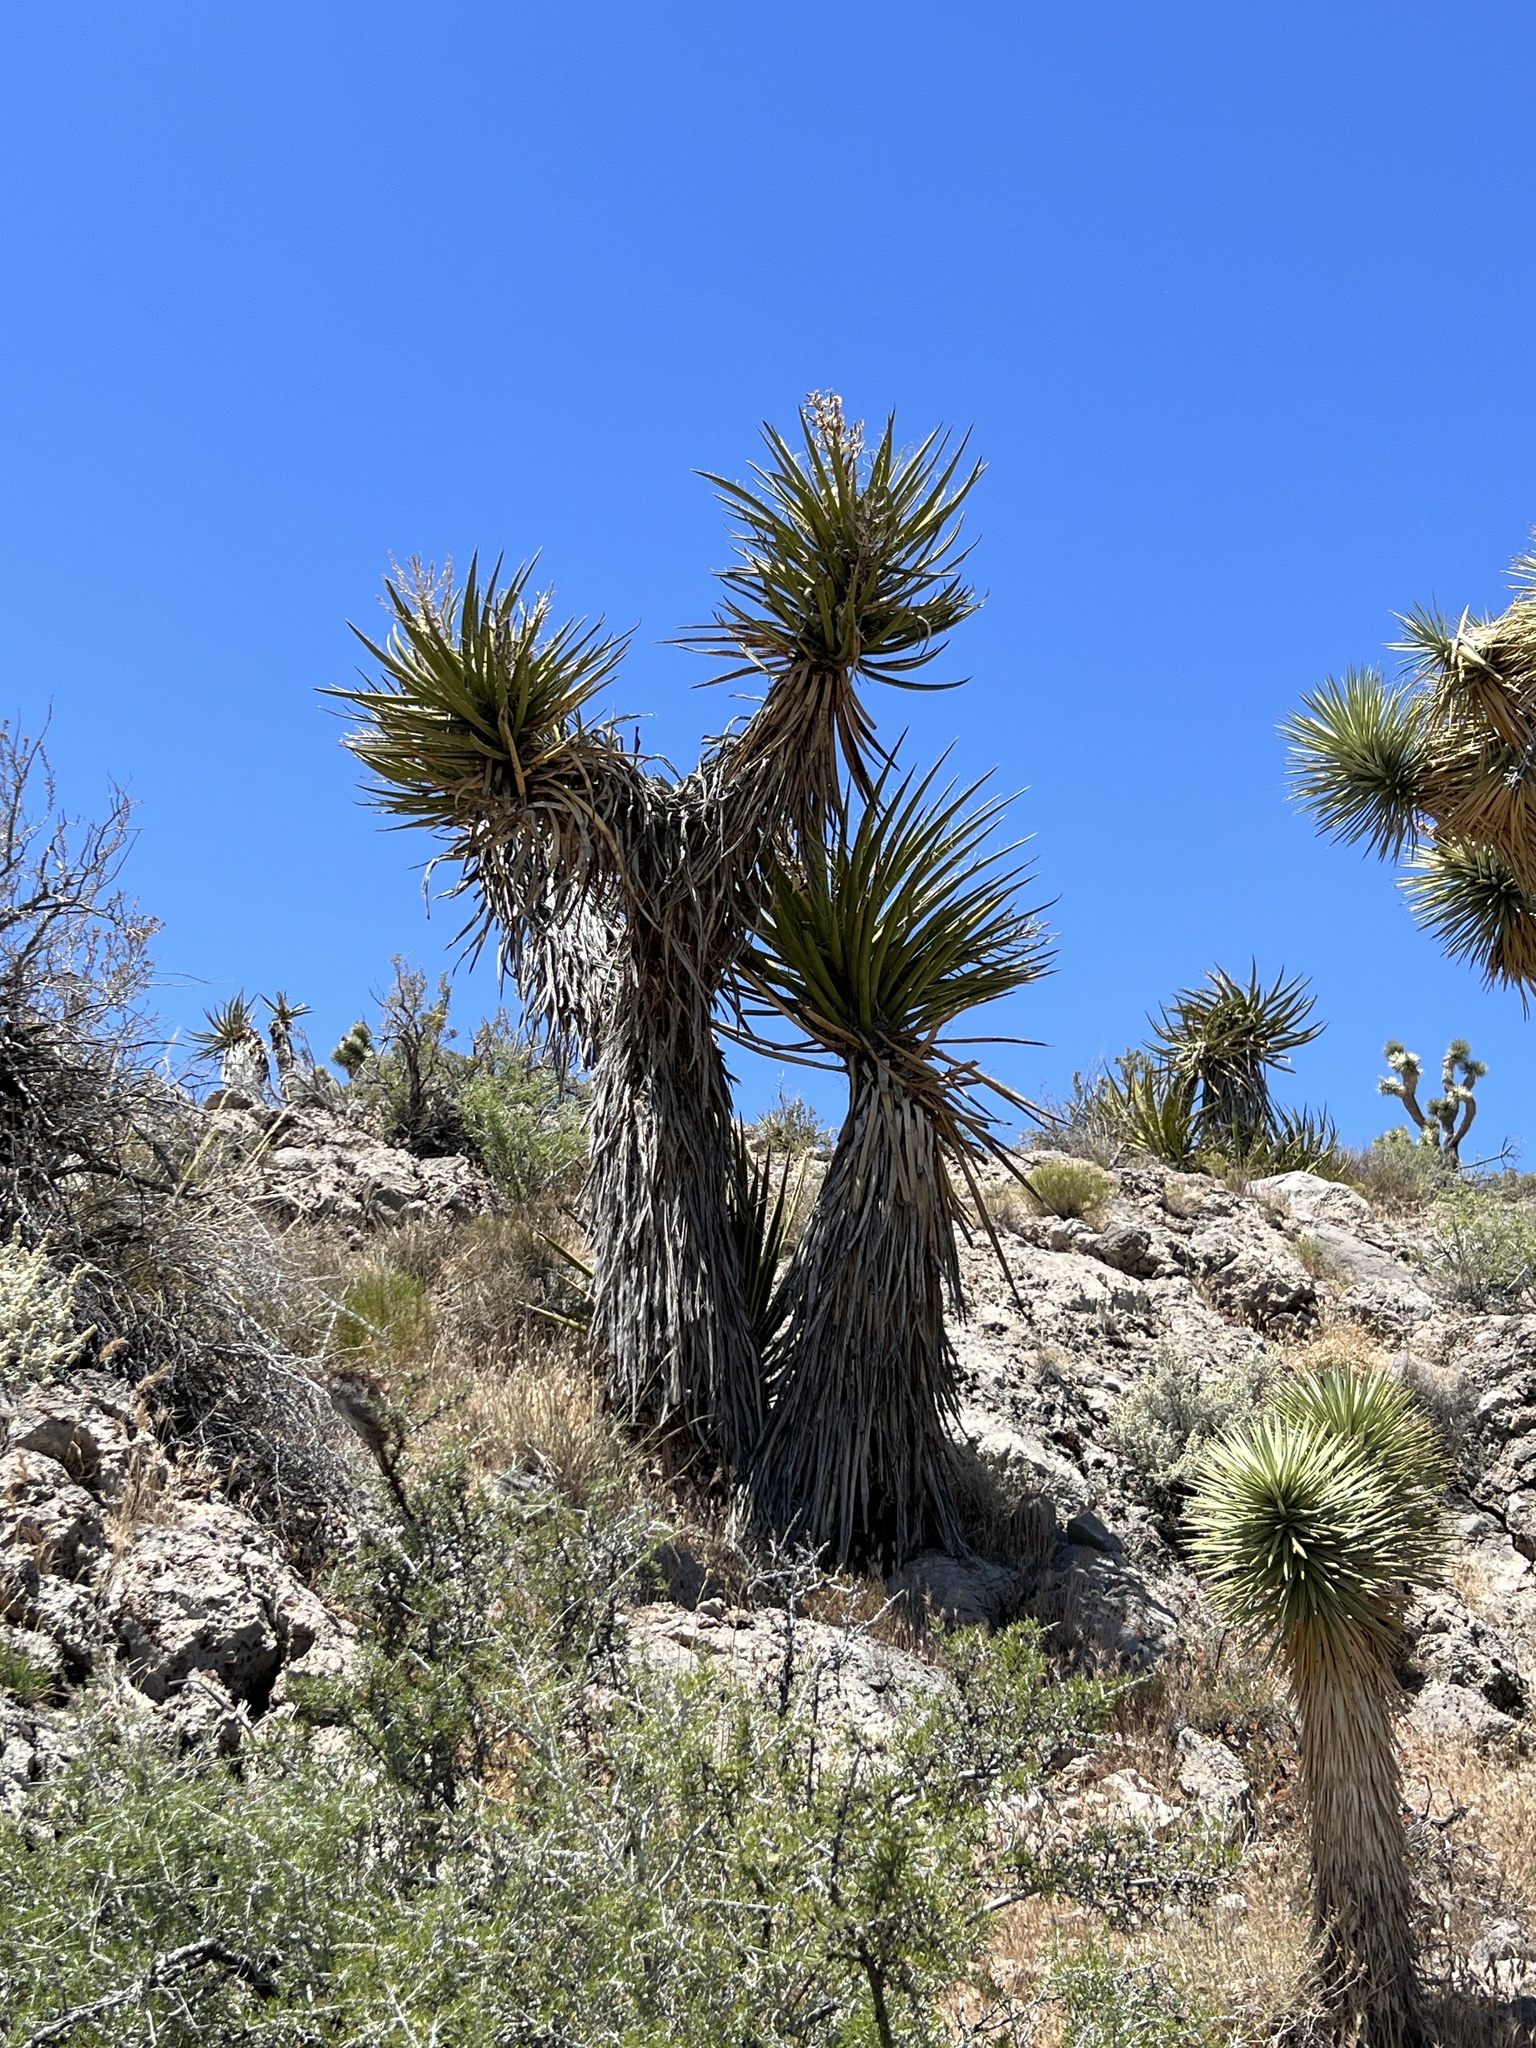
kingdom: Plantae
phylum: Tracheophyta
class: Liliopsida
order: Asparagales
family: Asparagaceae
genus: Yucca
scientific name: Yucca schidigera
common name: Mojave yucca
